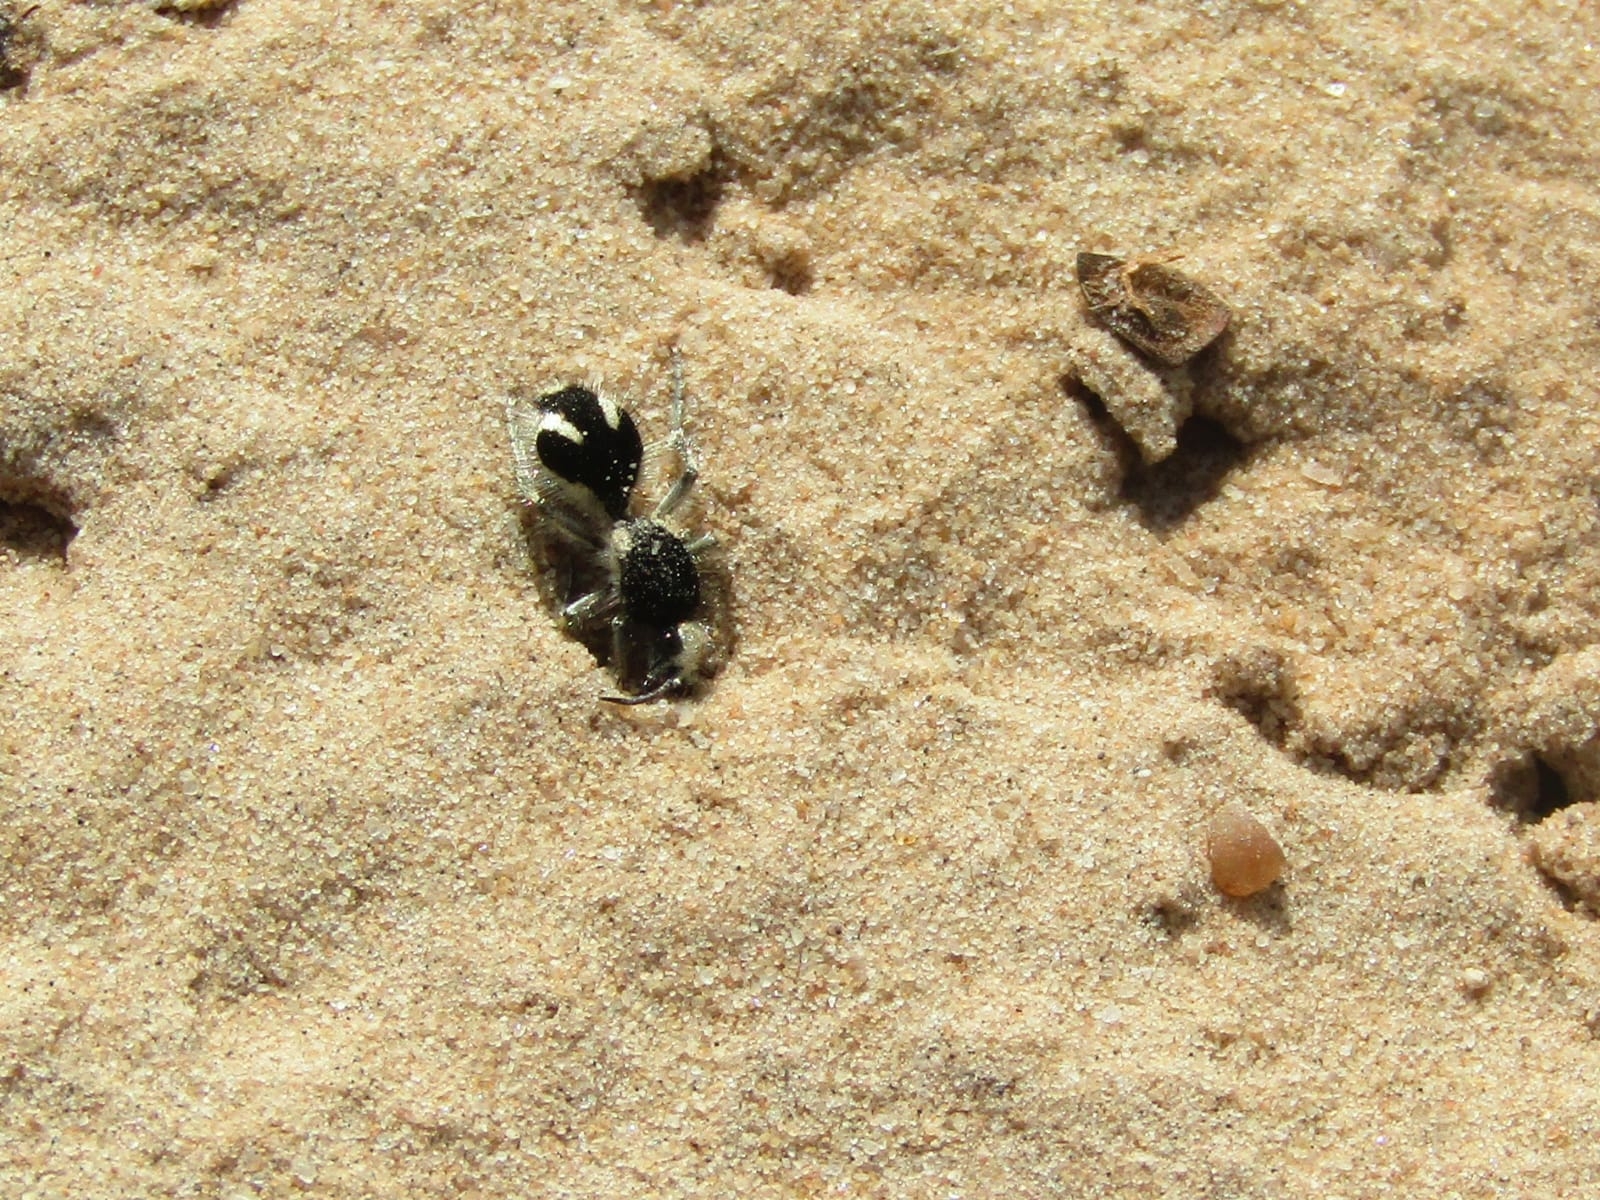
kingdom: Animalia
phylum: Arthropoda
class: Insecta
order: Hymenoptera
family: Mutillidae
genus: Traumatomutilla
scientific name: Traumatomutilla bifurca
